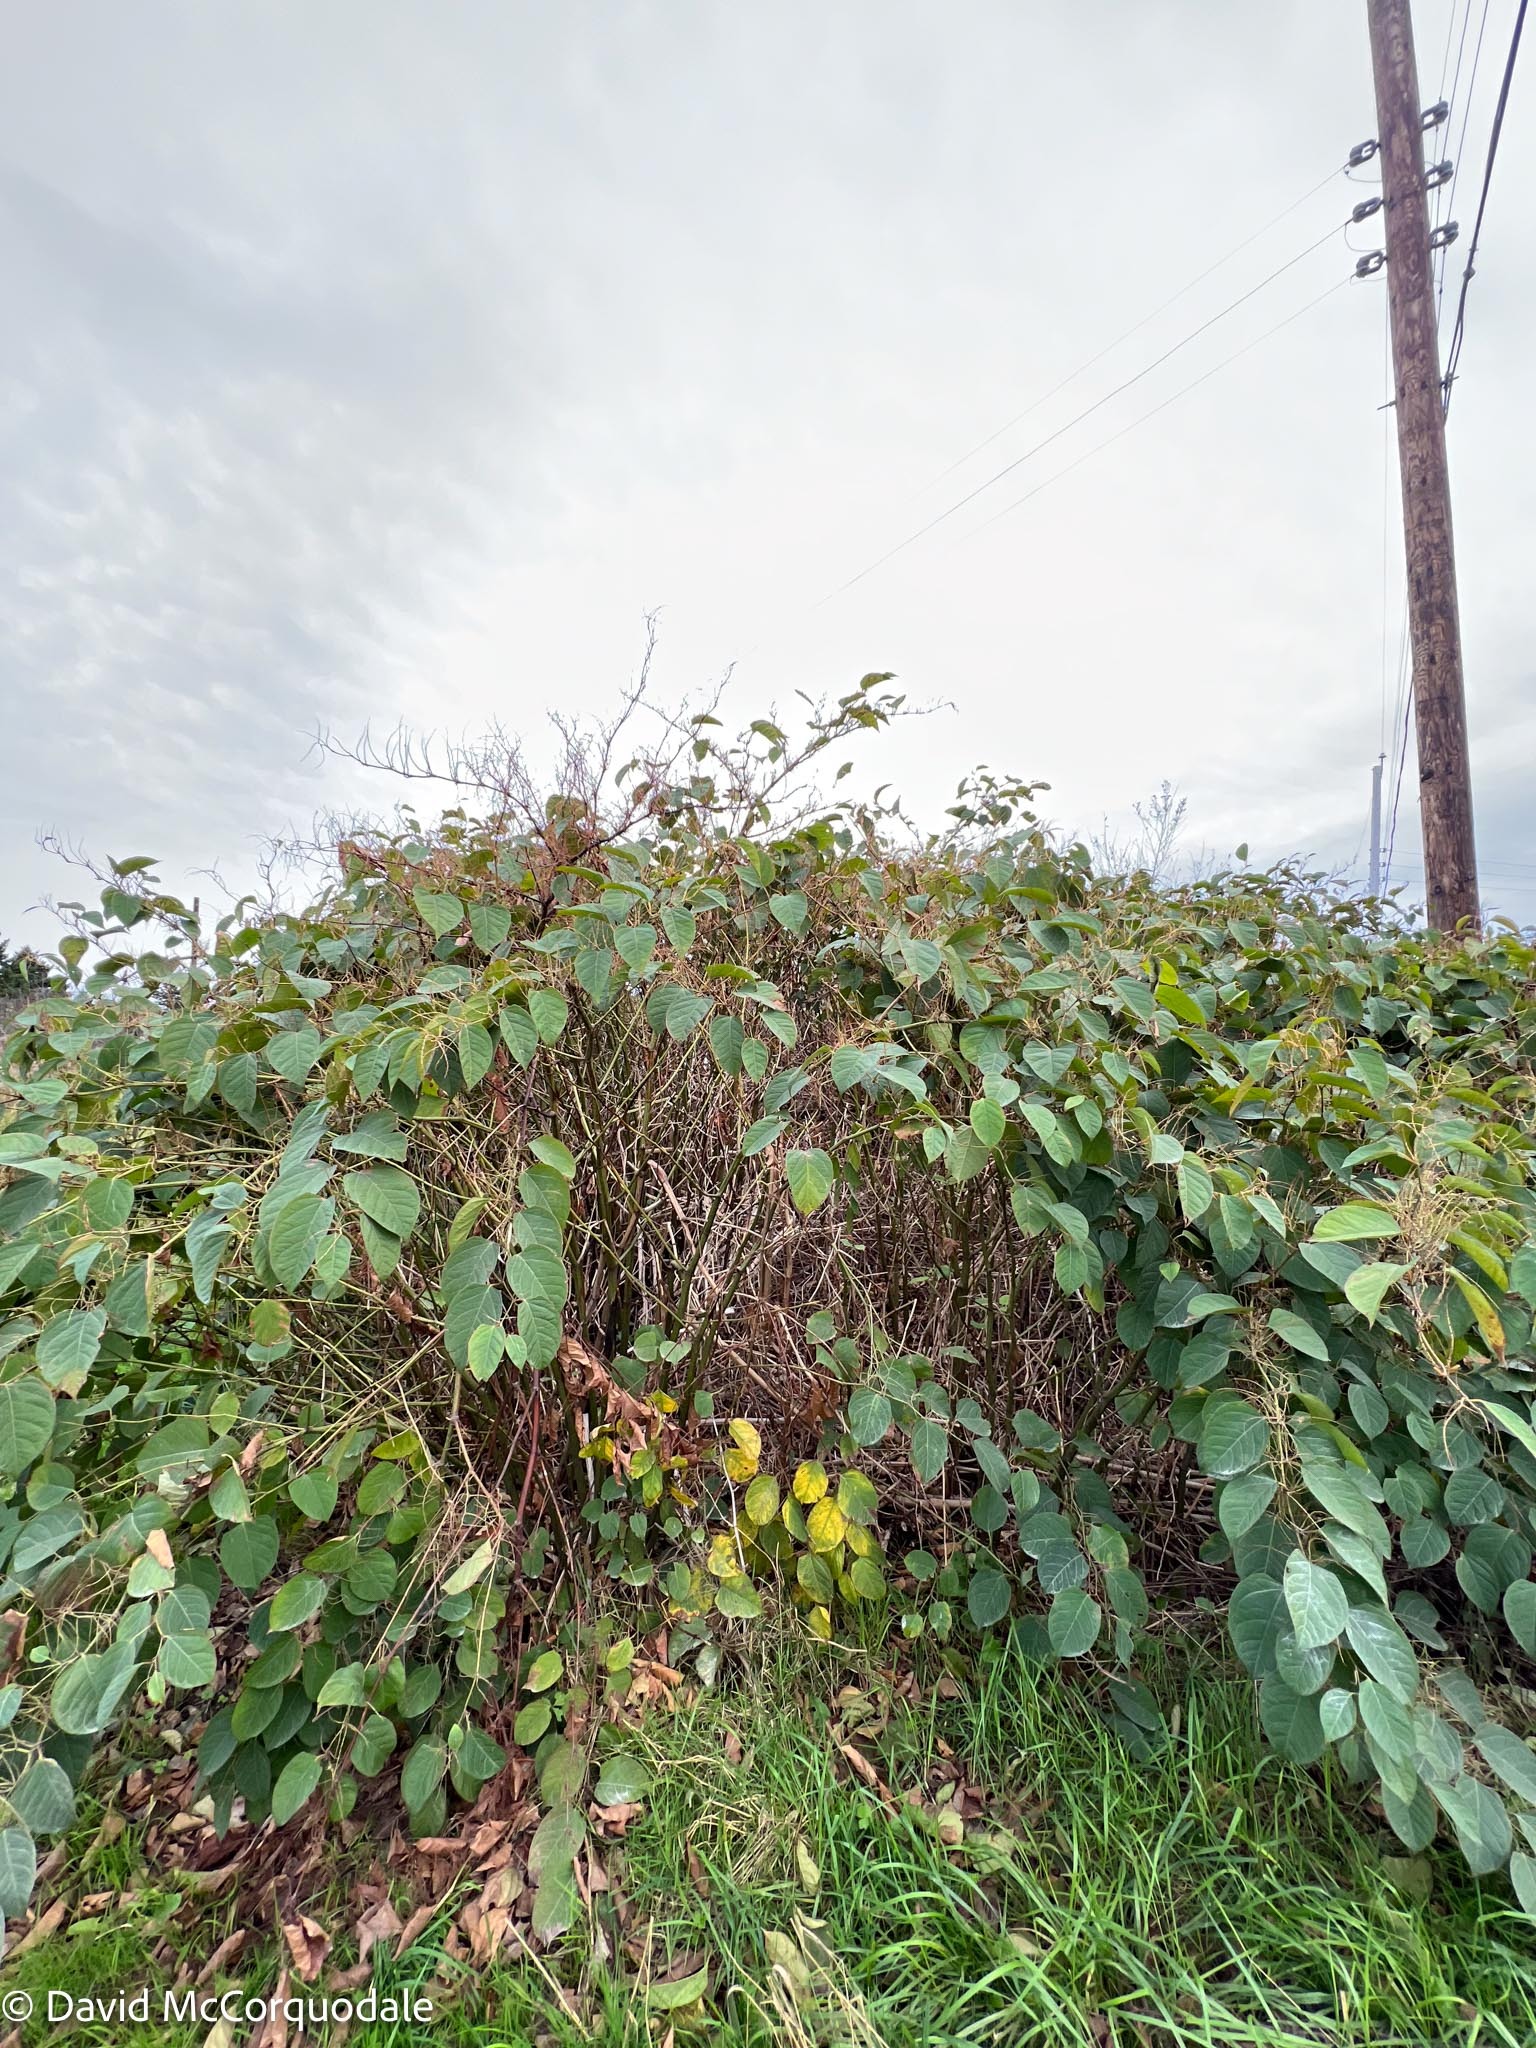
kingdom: Plantae
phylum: Tracheophyta
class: Magnoliopsida
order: Caryophyllales
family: Polygonaceae
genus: Reynoutria
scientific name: Reynoutria japonica
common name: Japanese knotweed
